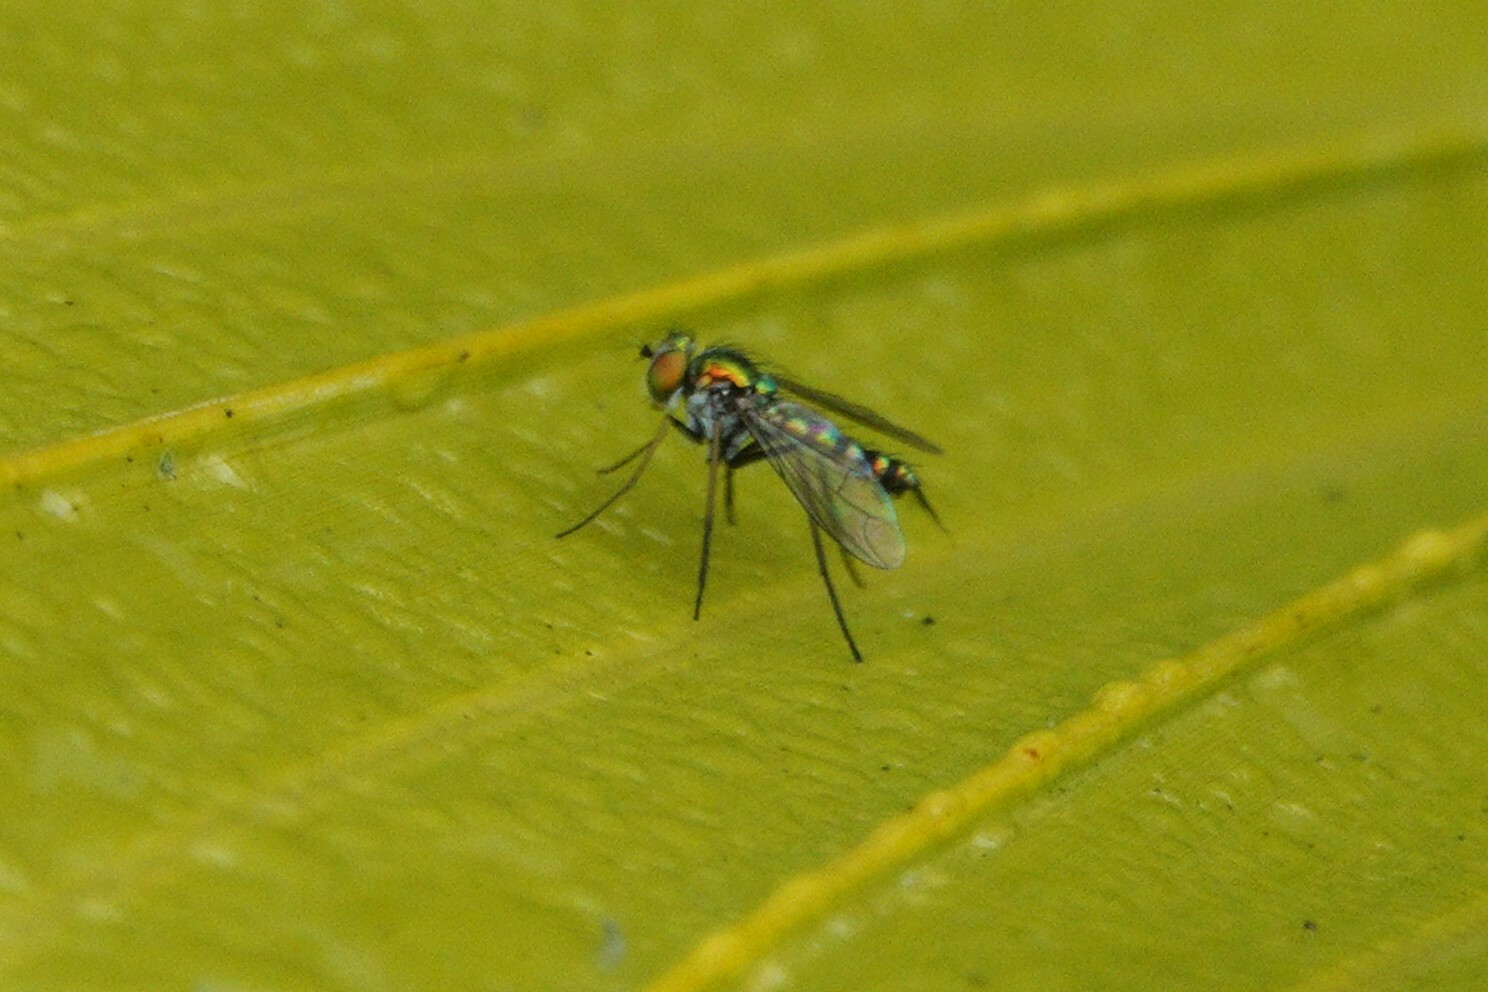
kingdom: Animalia
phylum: Arthropoda
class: Insecta
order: Diptera
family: Dolichopodidae
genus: Condylostylus
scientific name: Condylostylus graenicheri
